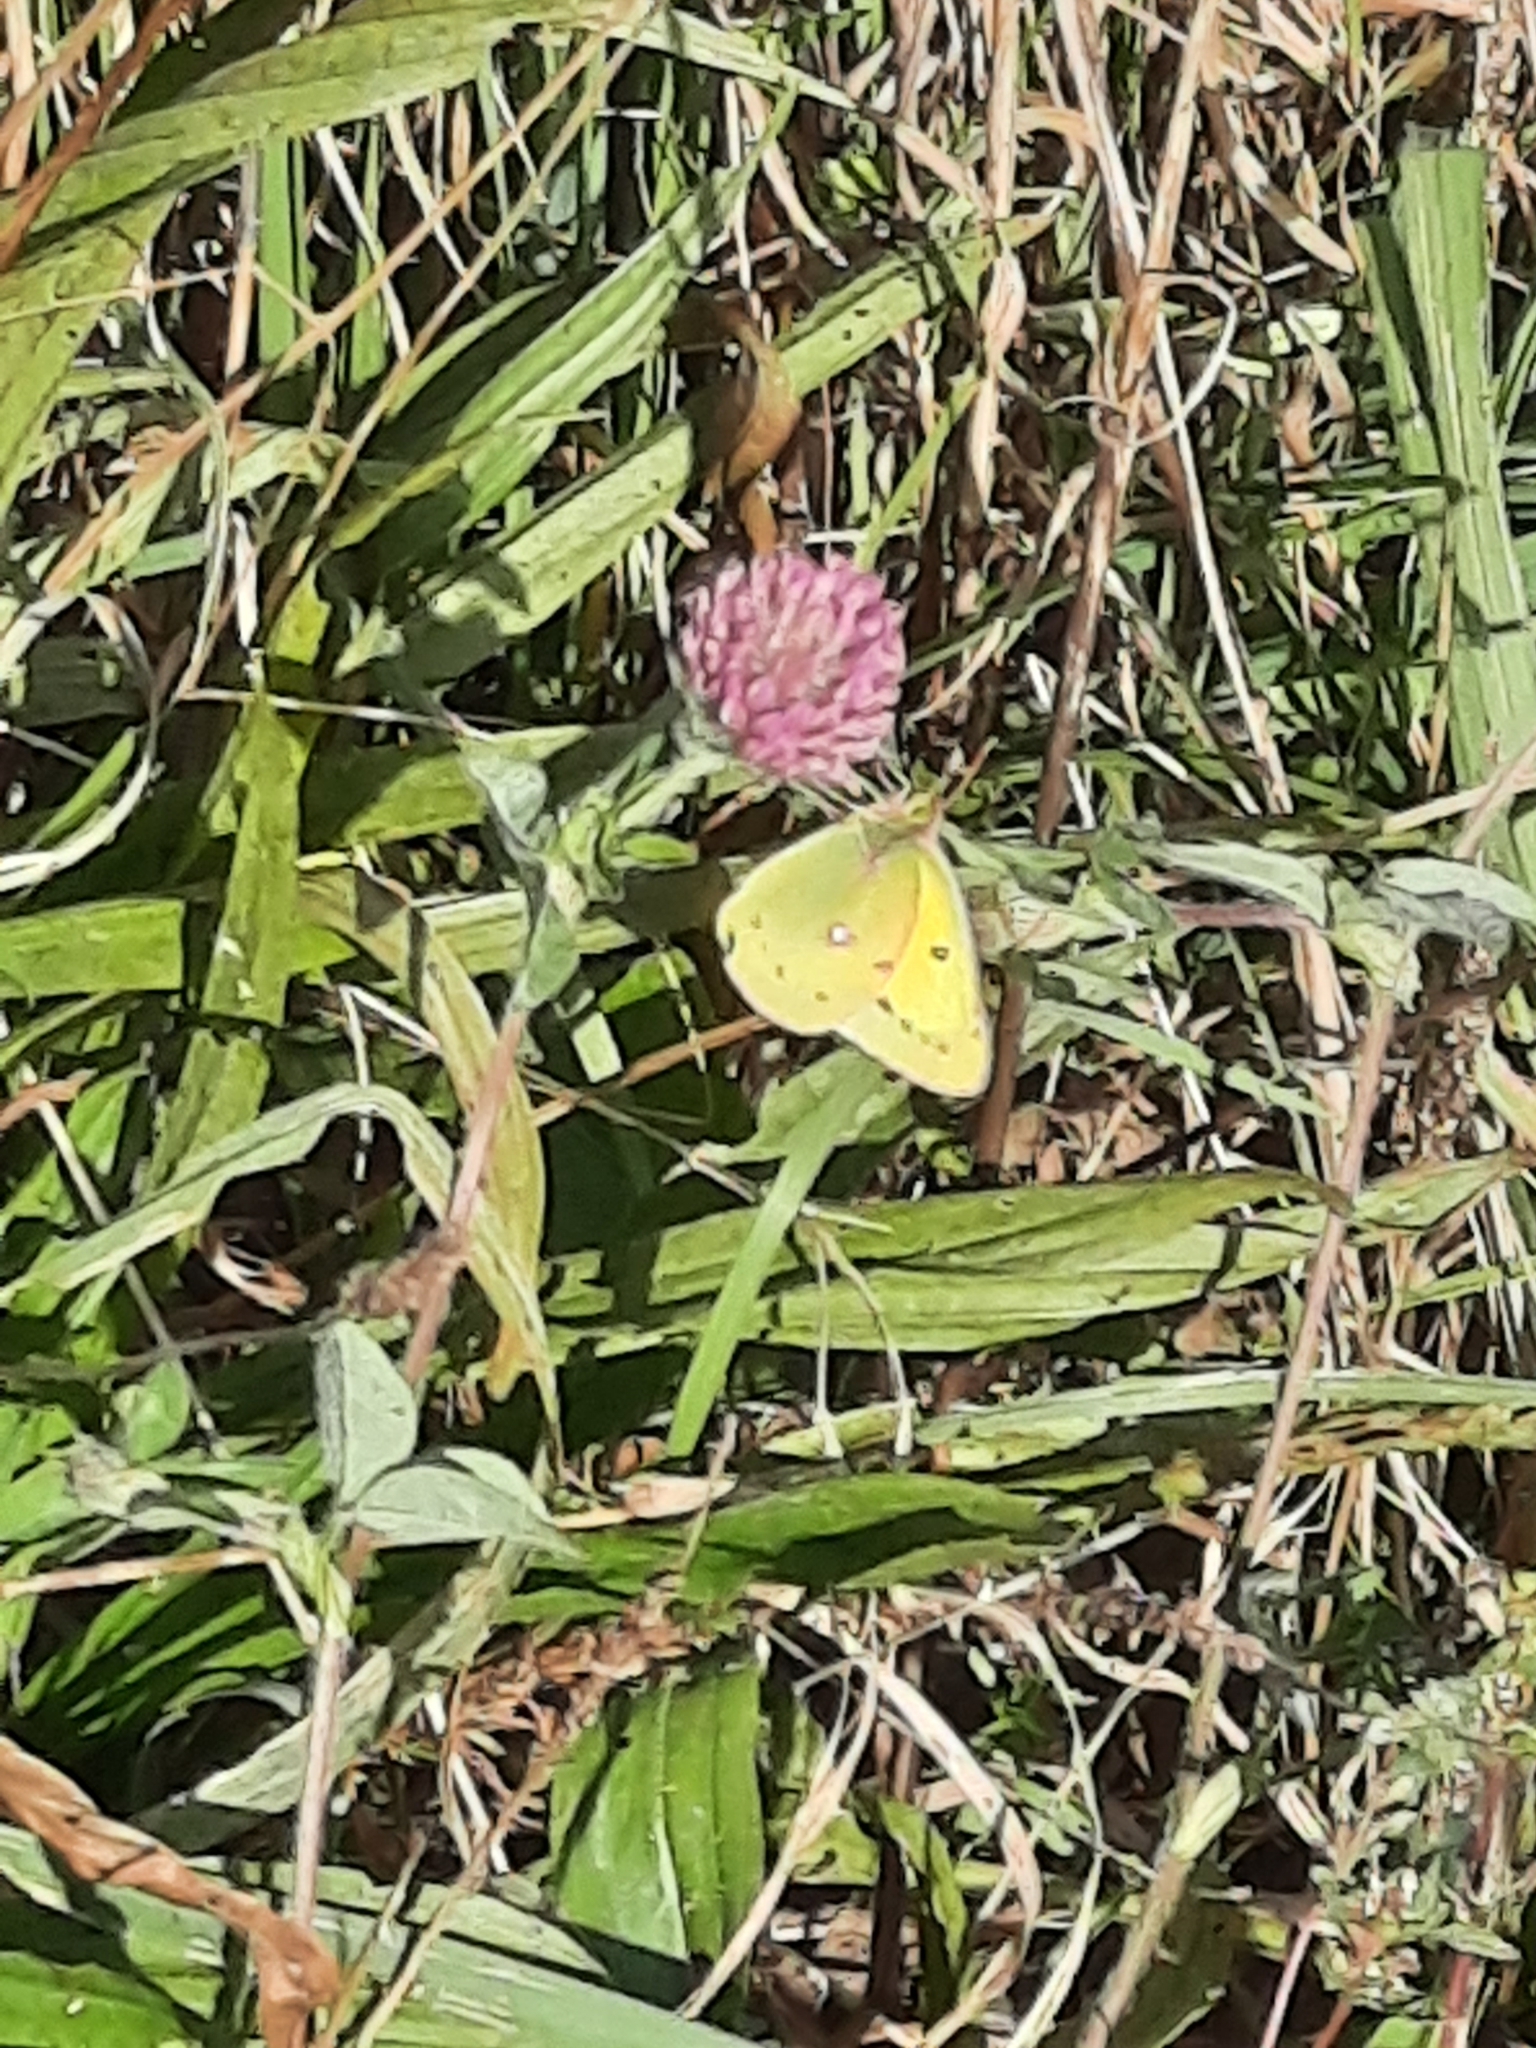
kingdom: Animalia
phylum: Arthropoda
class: Insecta
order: Lepidoptera
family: Pieridae
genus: Colias
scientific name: Colias eurytheme
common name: Alfalfa butterfly
